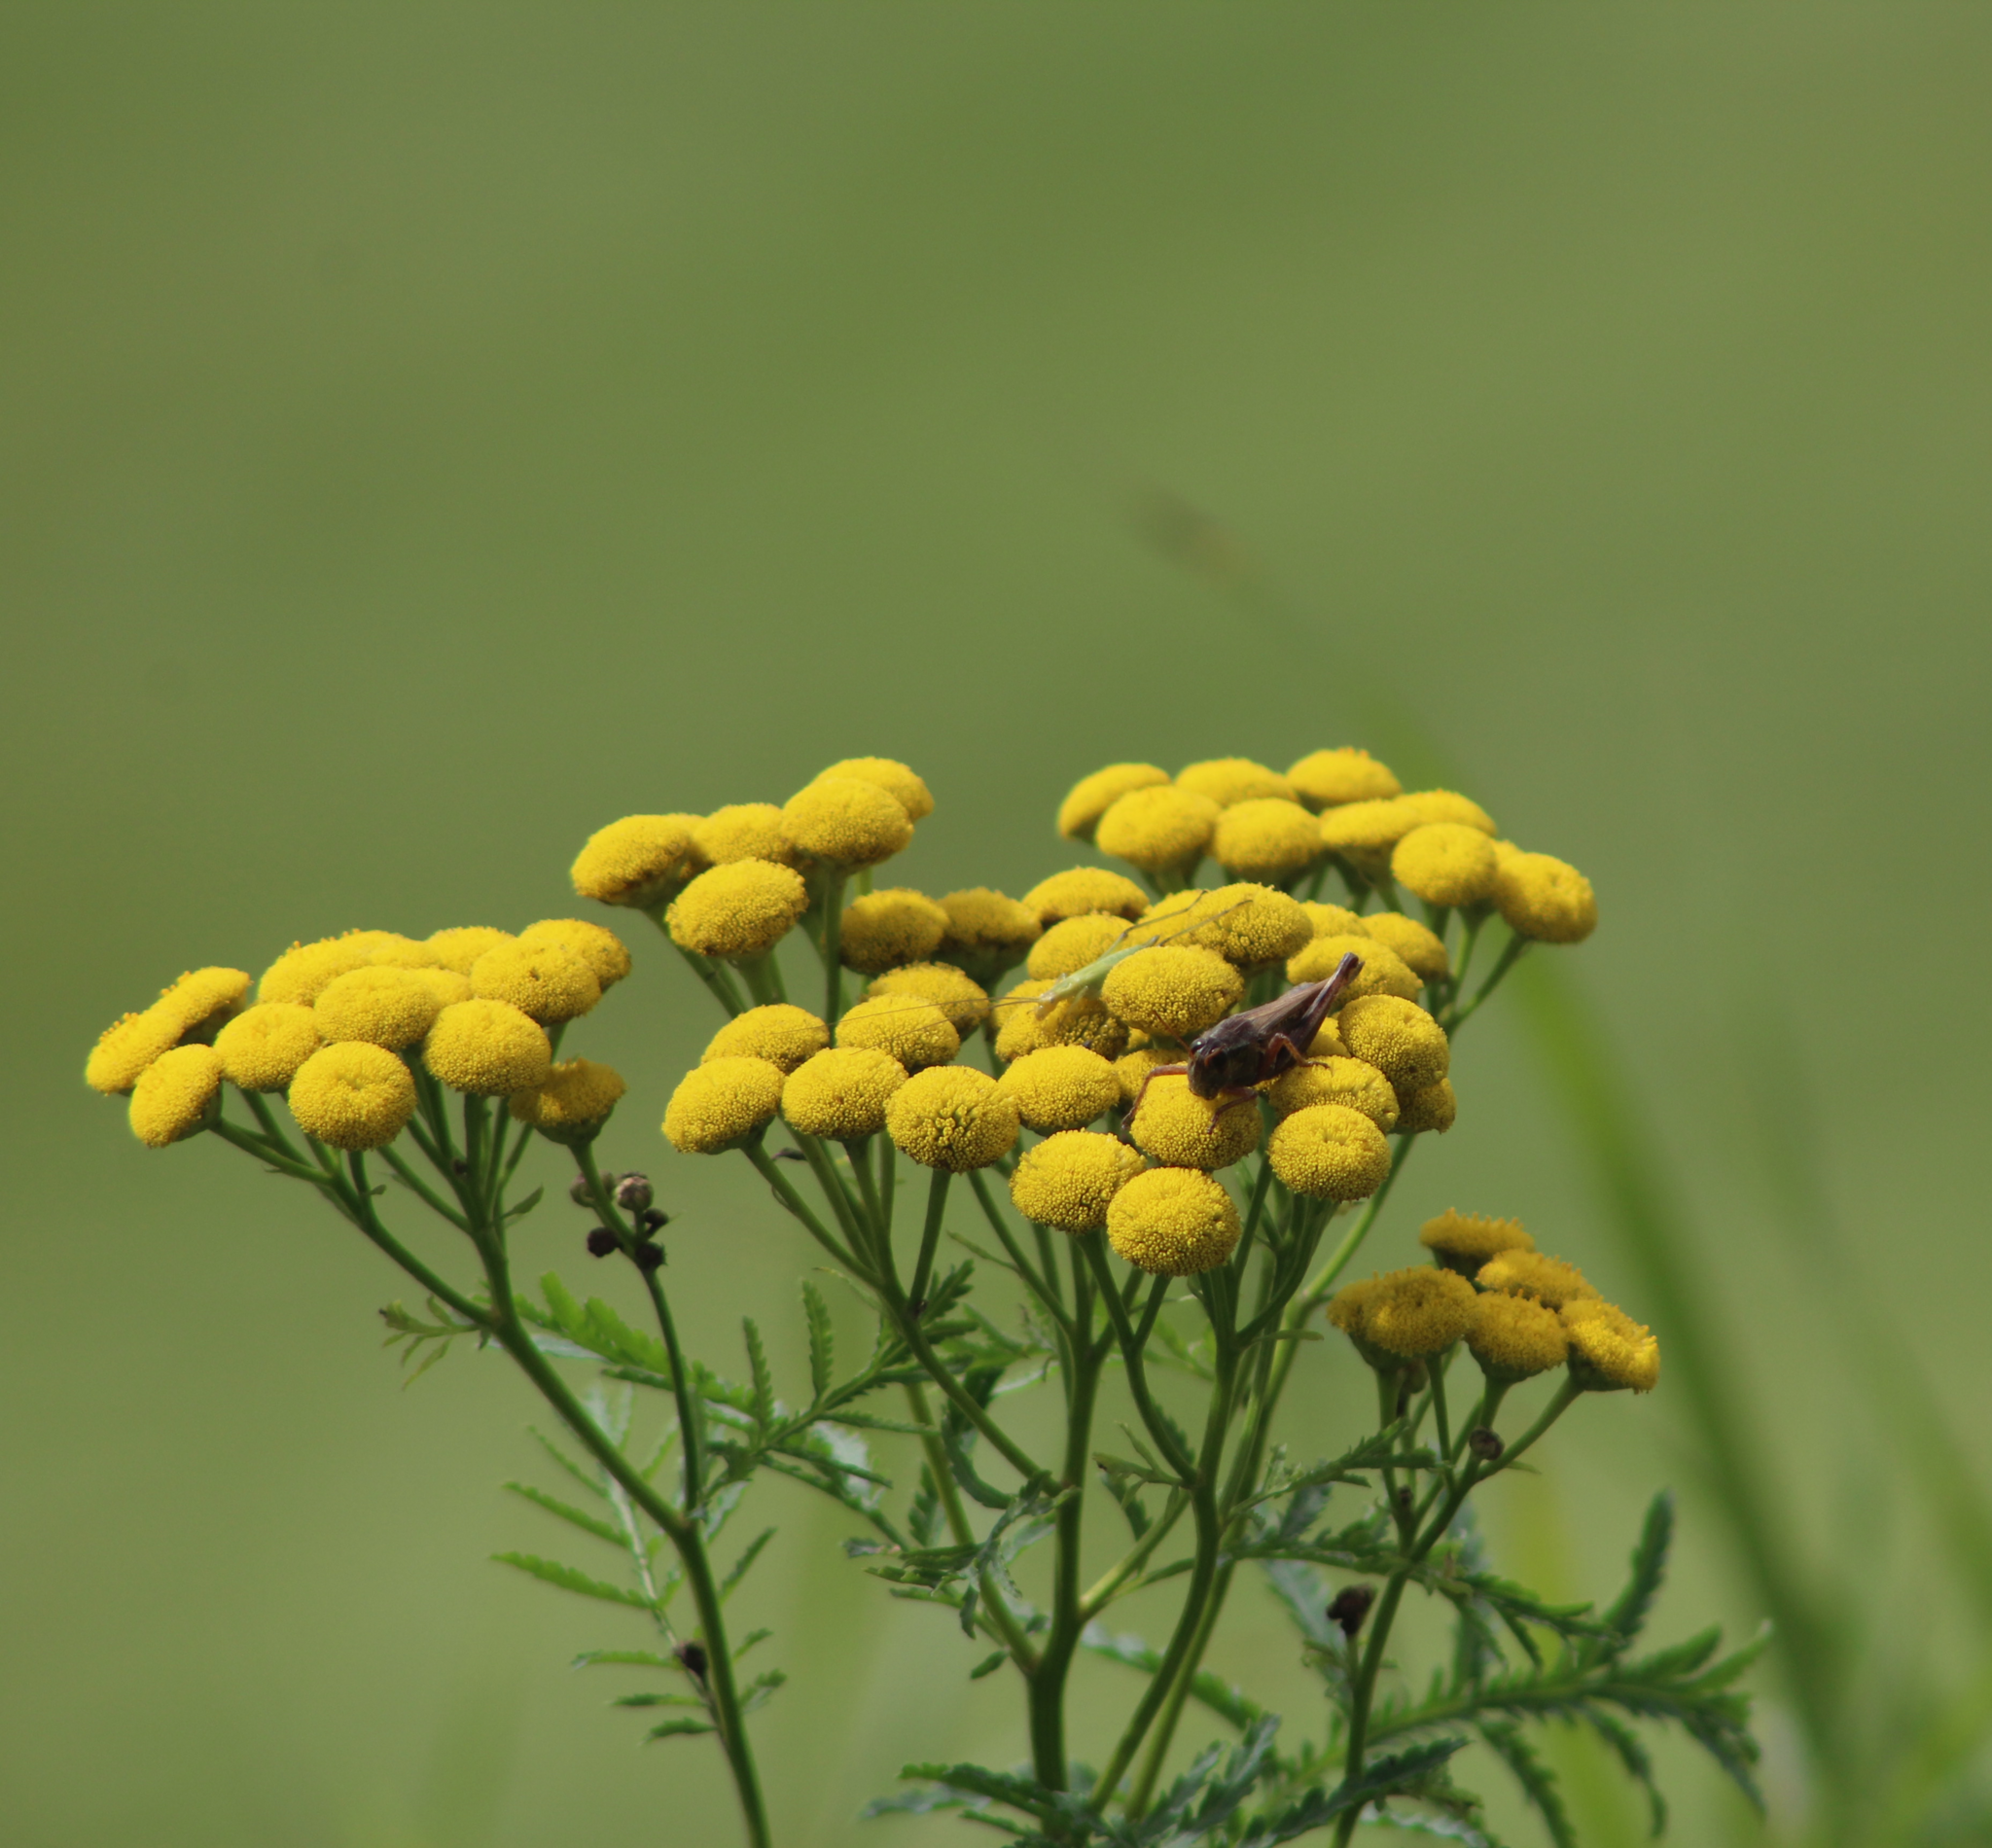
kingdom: Plantae
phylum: Tracheophyta
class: Magnoliopsida
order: Asterales
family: Asteraceae
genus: Tanacetum
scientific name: Tanacetum vulgare
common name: Common tansy
